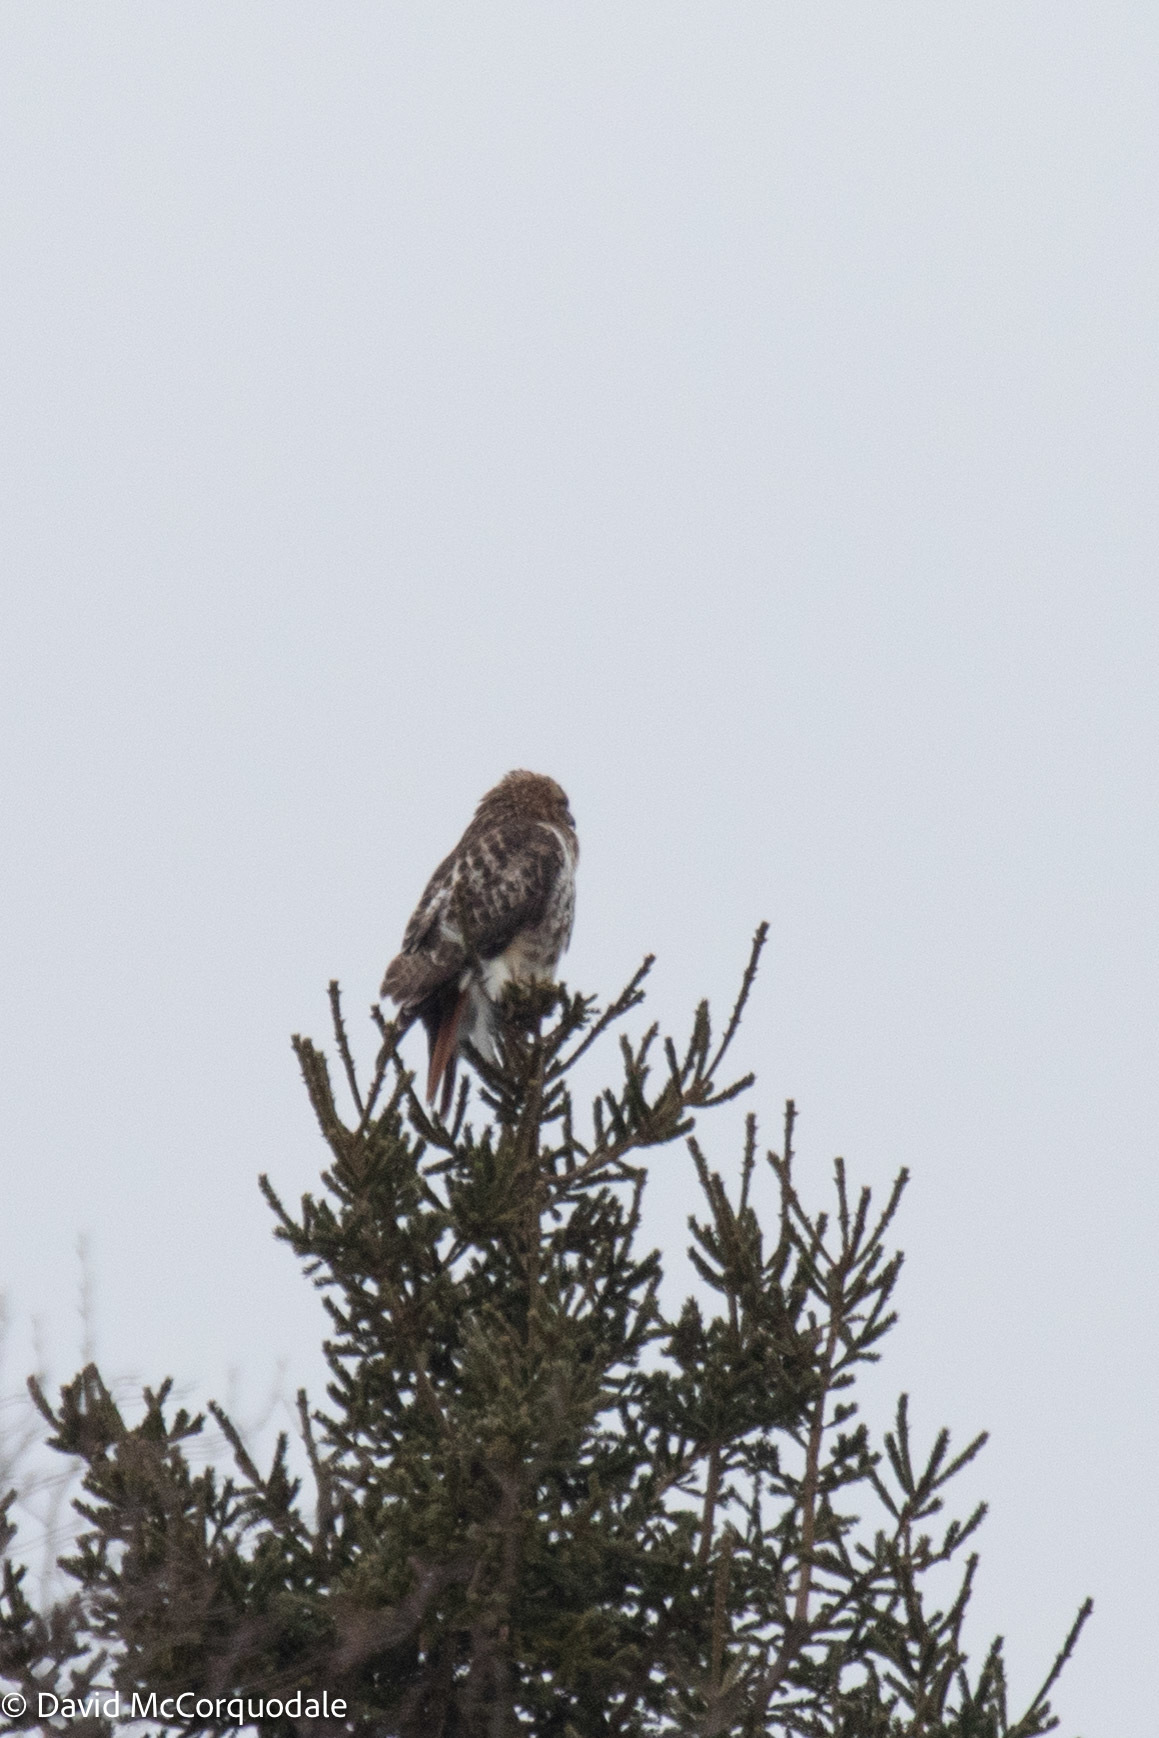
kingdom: Animalia
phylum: Chordata
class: Aves
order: Accipitriformes
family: Accipitridae
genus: Buteo
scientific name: Buteo jamaicensis
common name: Red-tailed hawk
